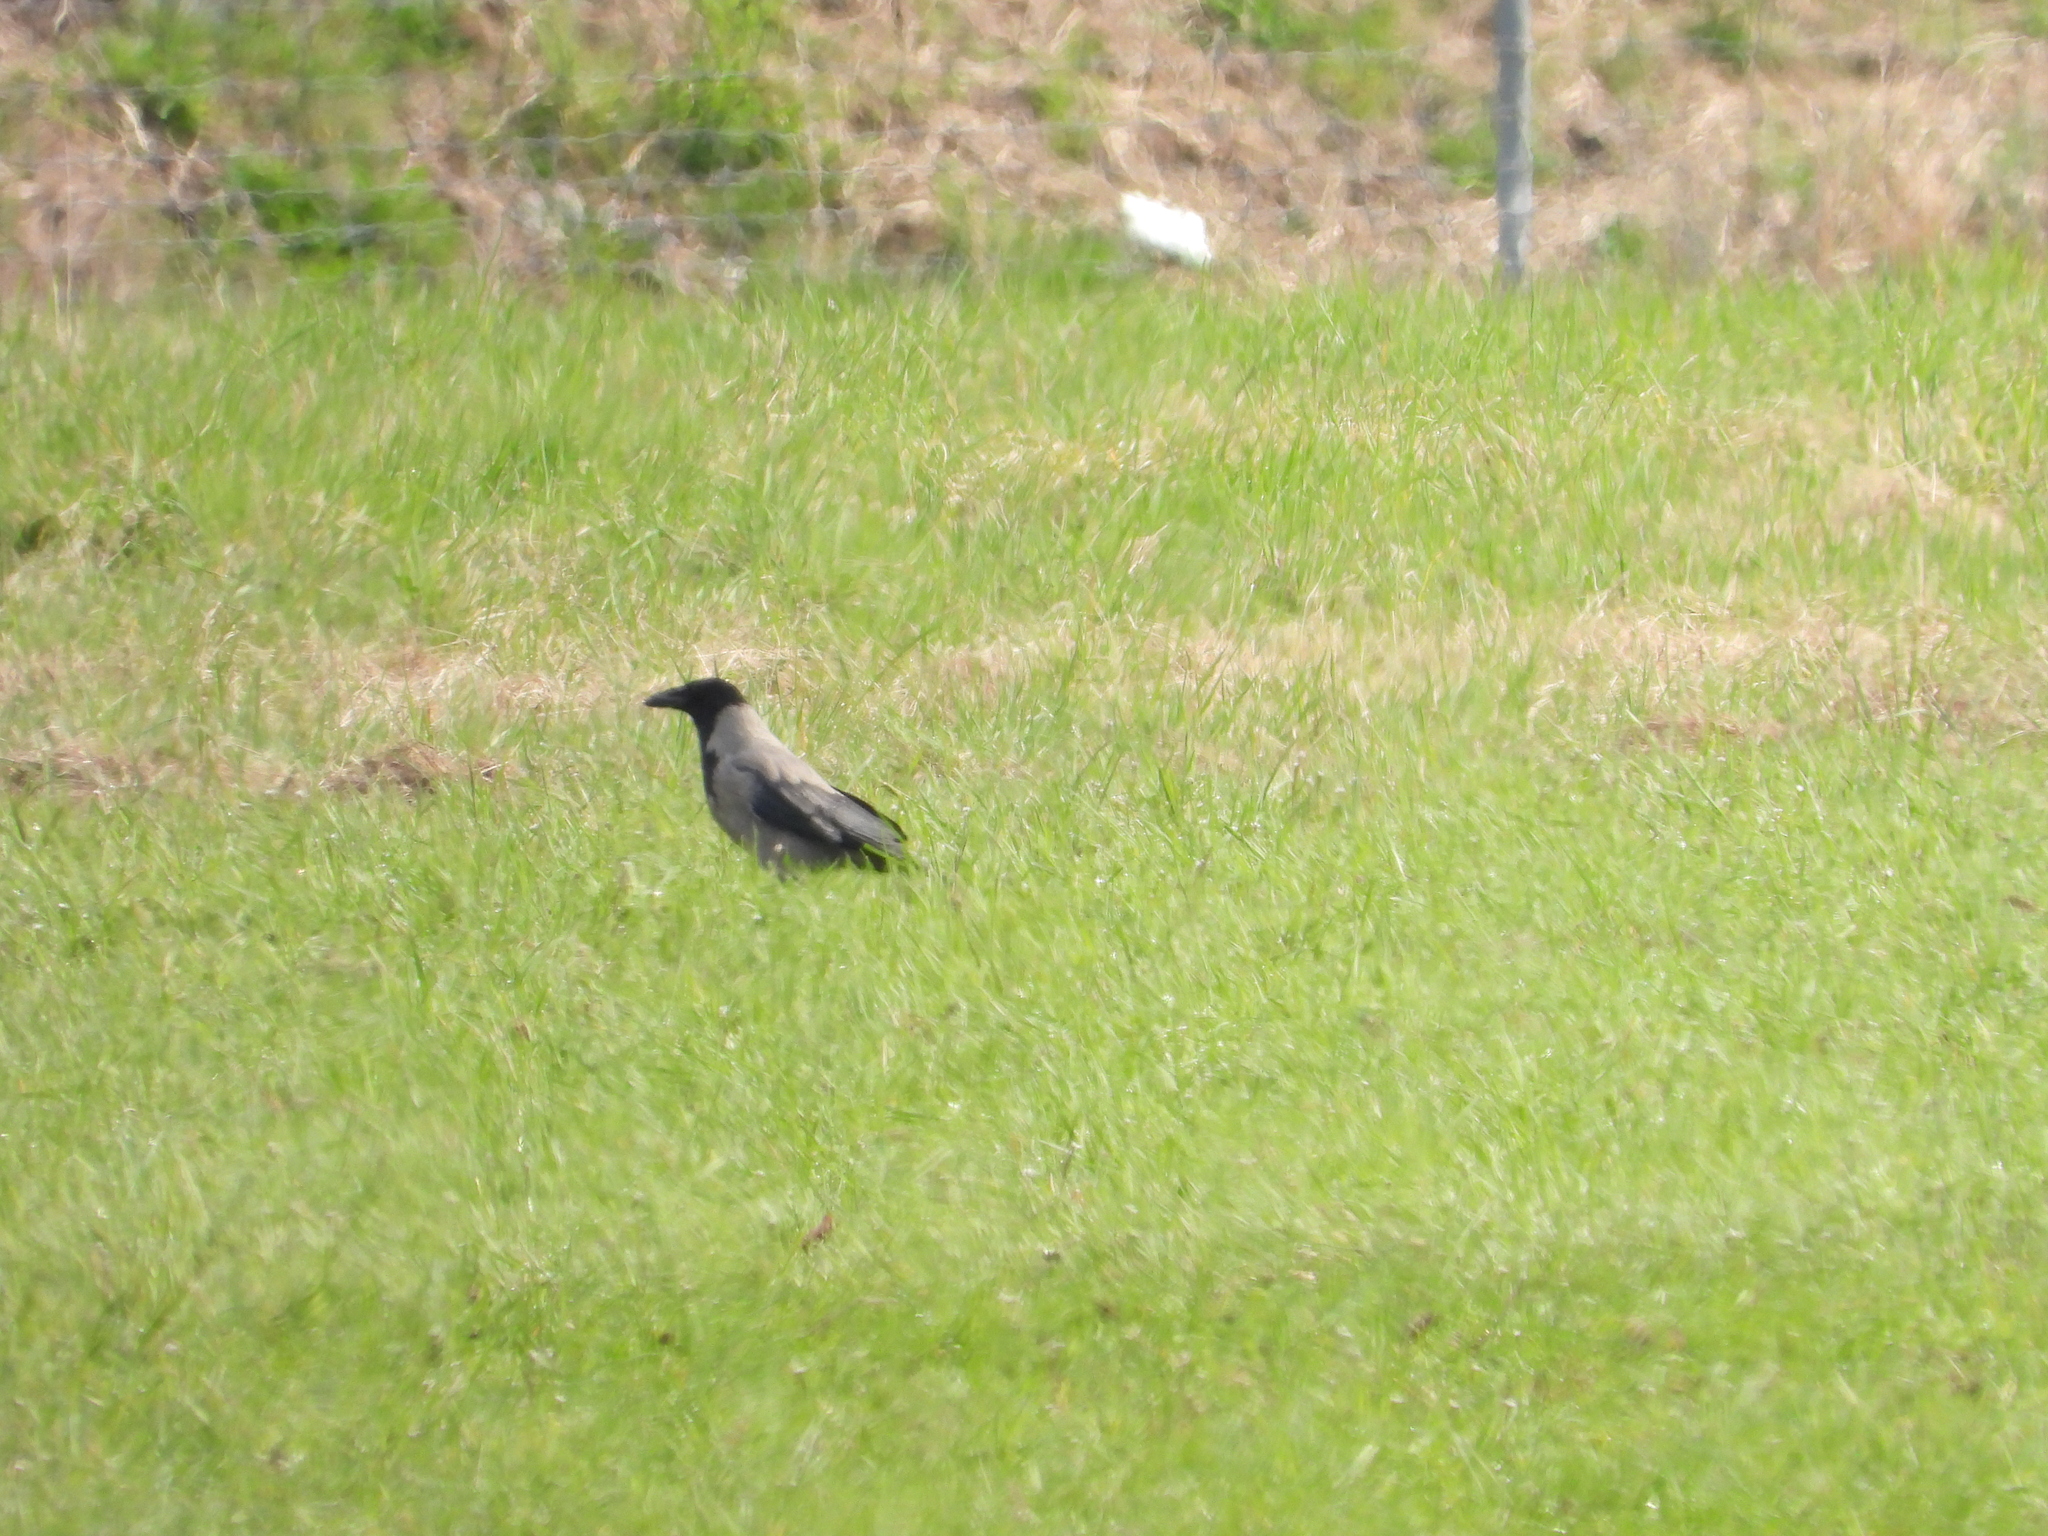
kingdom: Animalia
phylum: Chordata
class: Aves
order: Passeriformes
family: Corvidae
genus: Corvus
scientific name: Corvus cornix
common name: Hooded crow
